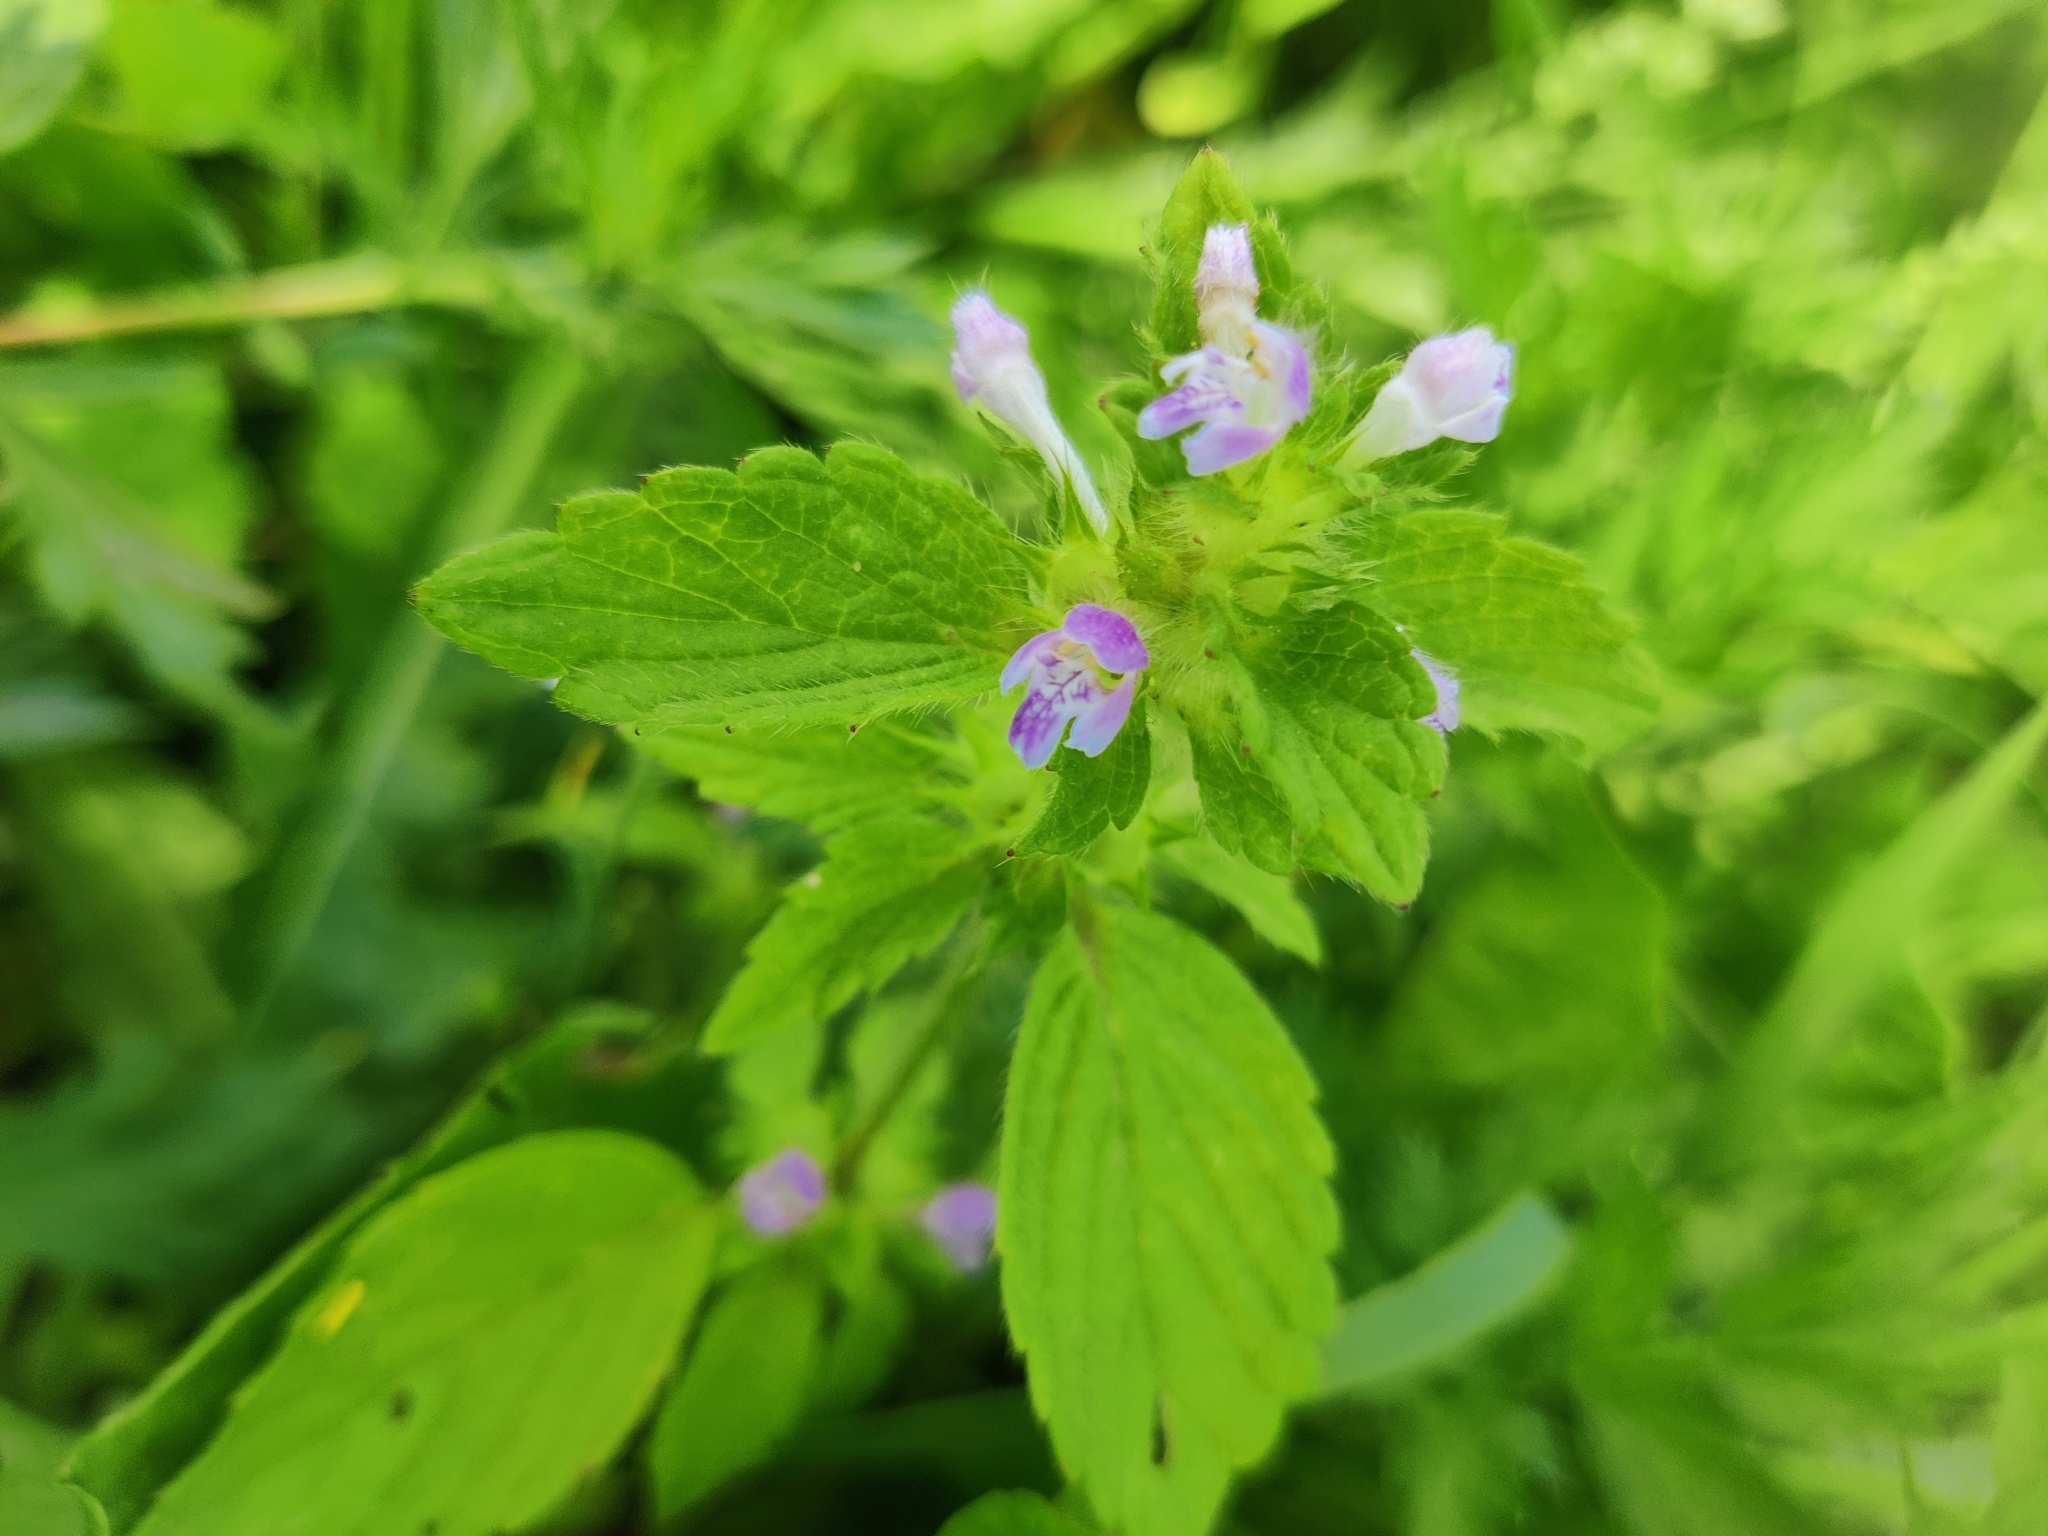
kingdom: Plantae
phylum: Tracheophyta
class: Magnoliopsida
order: Lamiales
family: Lamiaceae
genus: Galeopsis
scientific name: Galeopsis bifida
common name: Bifid hemp-nettle
